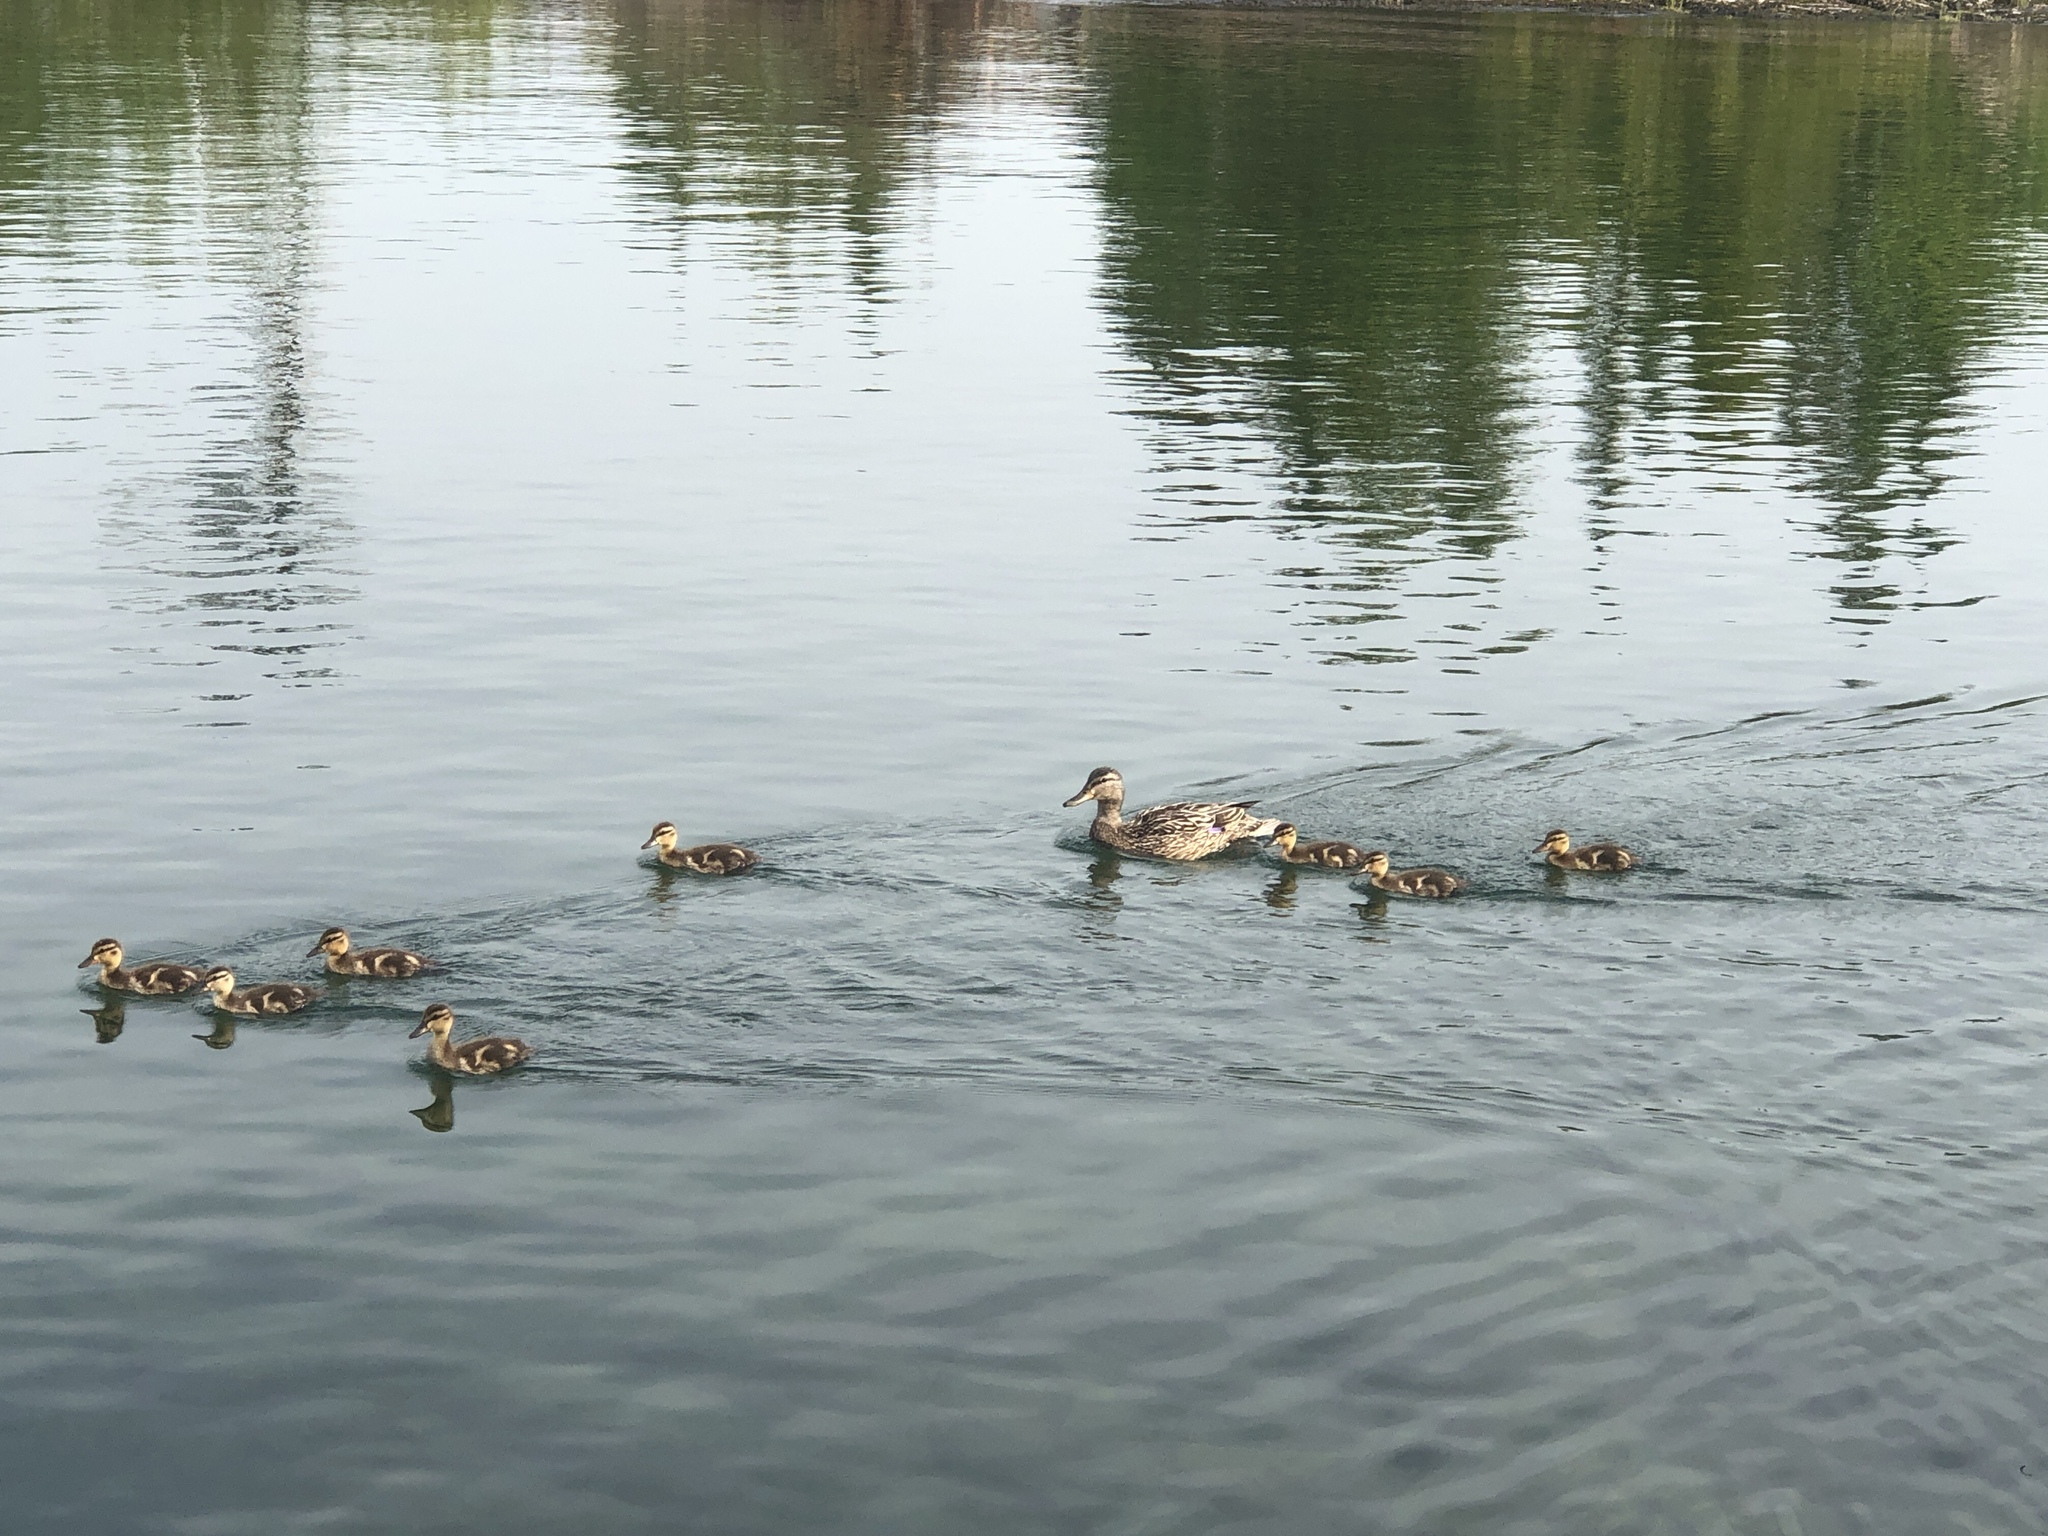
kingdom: Animalia
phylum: Chordata
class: Aves
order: Anseriformes
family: Anatidae
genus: Anas
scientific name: Anas platyrhynchos
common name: Mallard
